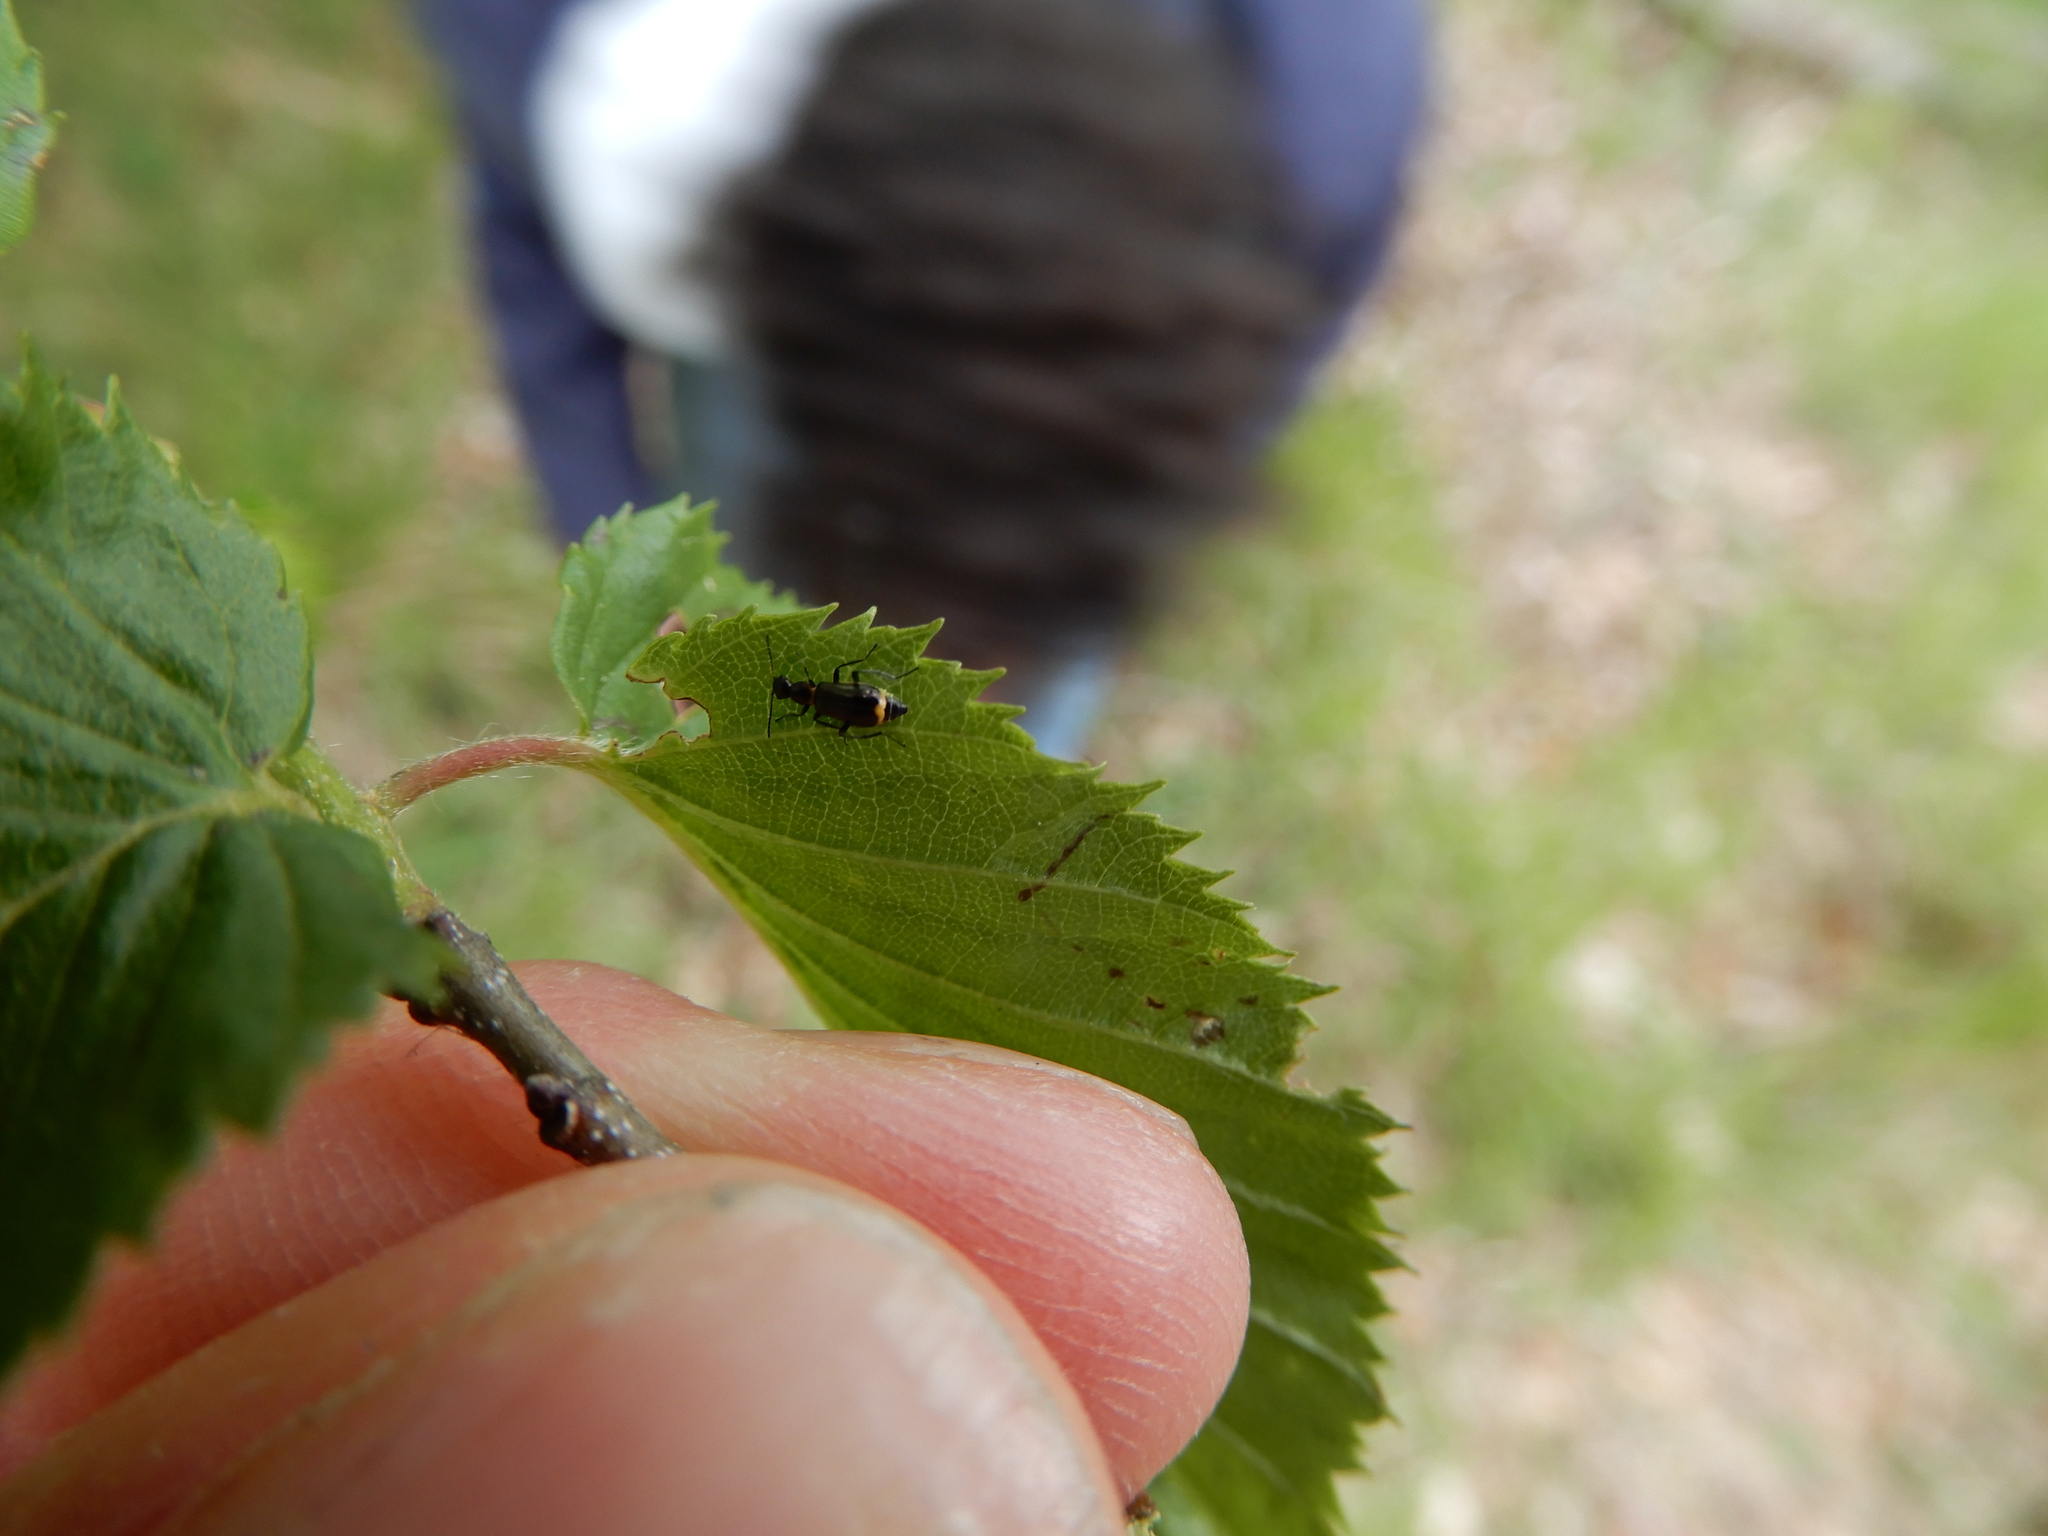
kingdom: Animalia
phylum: Arthropoda
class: Insecta
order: Coleoptera
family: Melyridae
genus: Sphinginus
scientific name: Sphinginus lobatus
